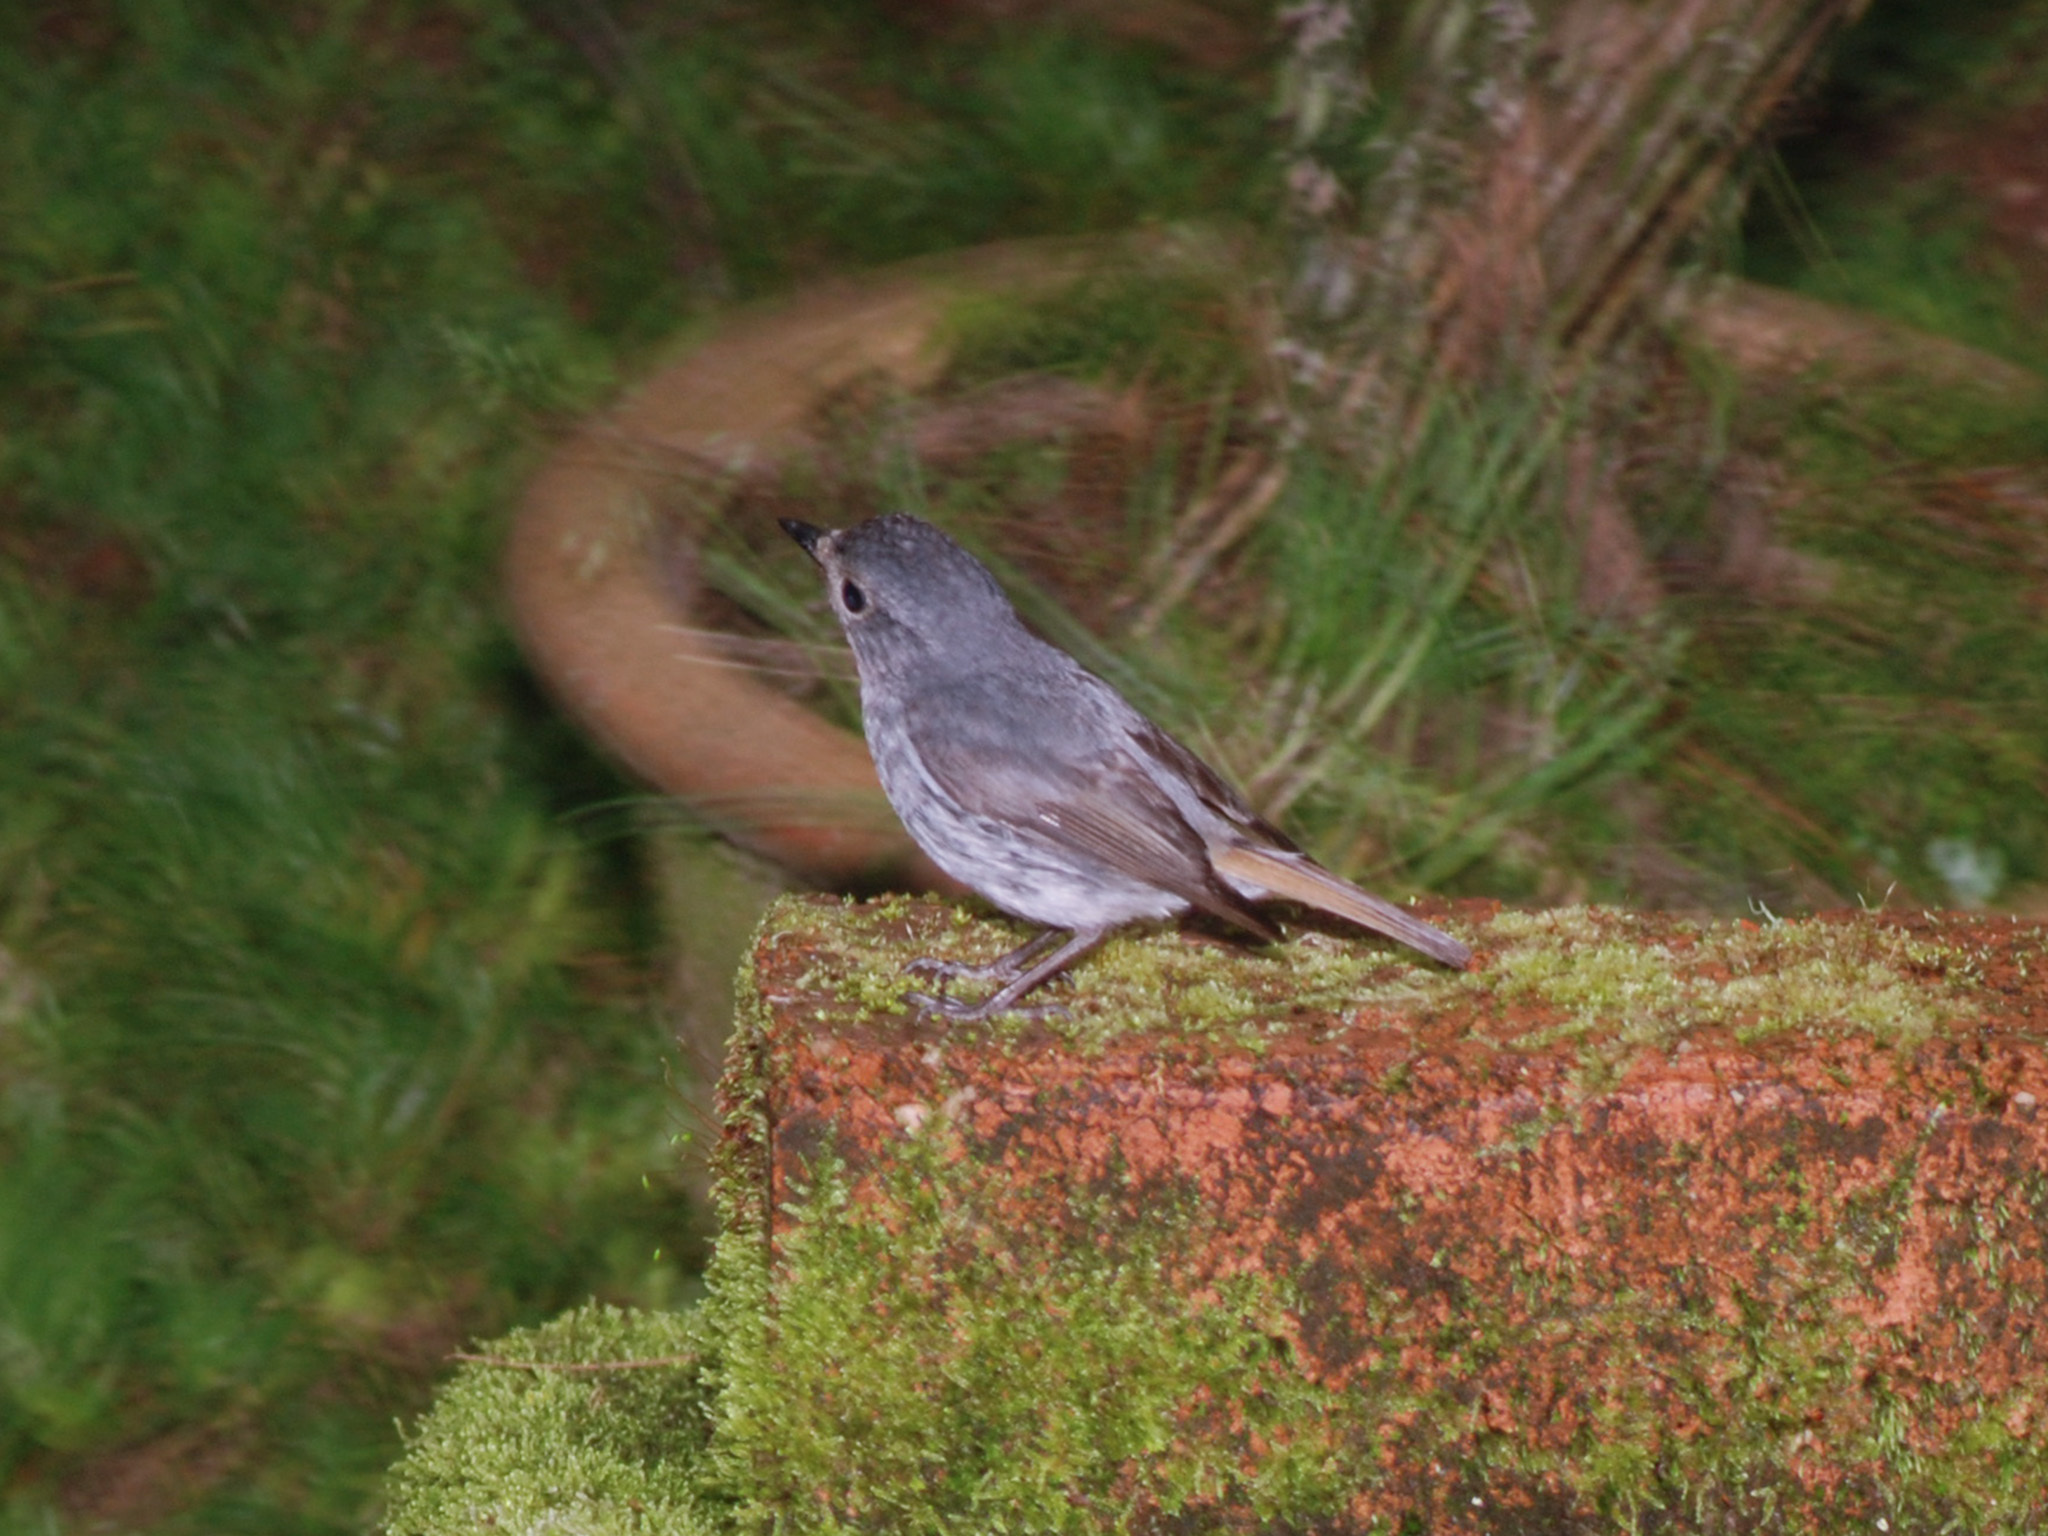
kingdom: Animalia
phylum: Chordata
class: Aves
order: Passeriformes
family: Muscicapidae
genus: Ficedula
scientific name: Ficedula westermanni
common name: Little pied flycatcher
